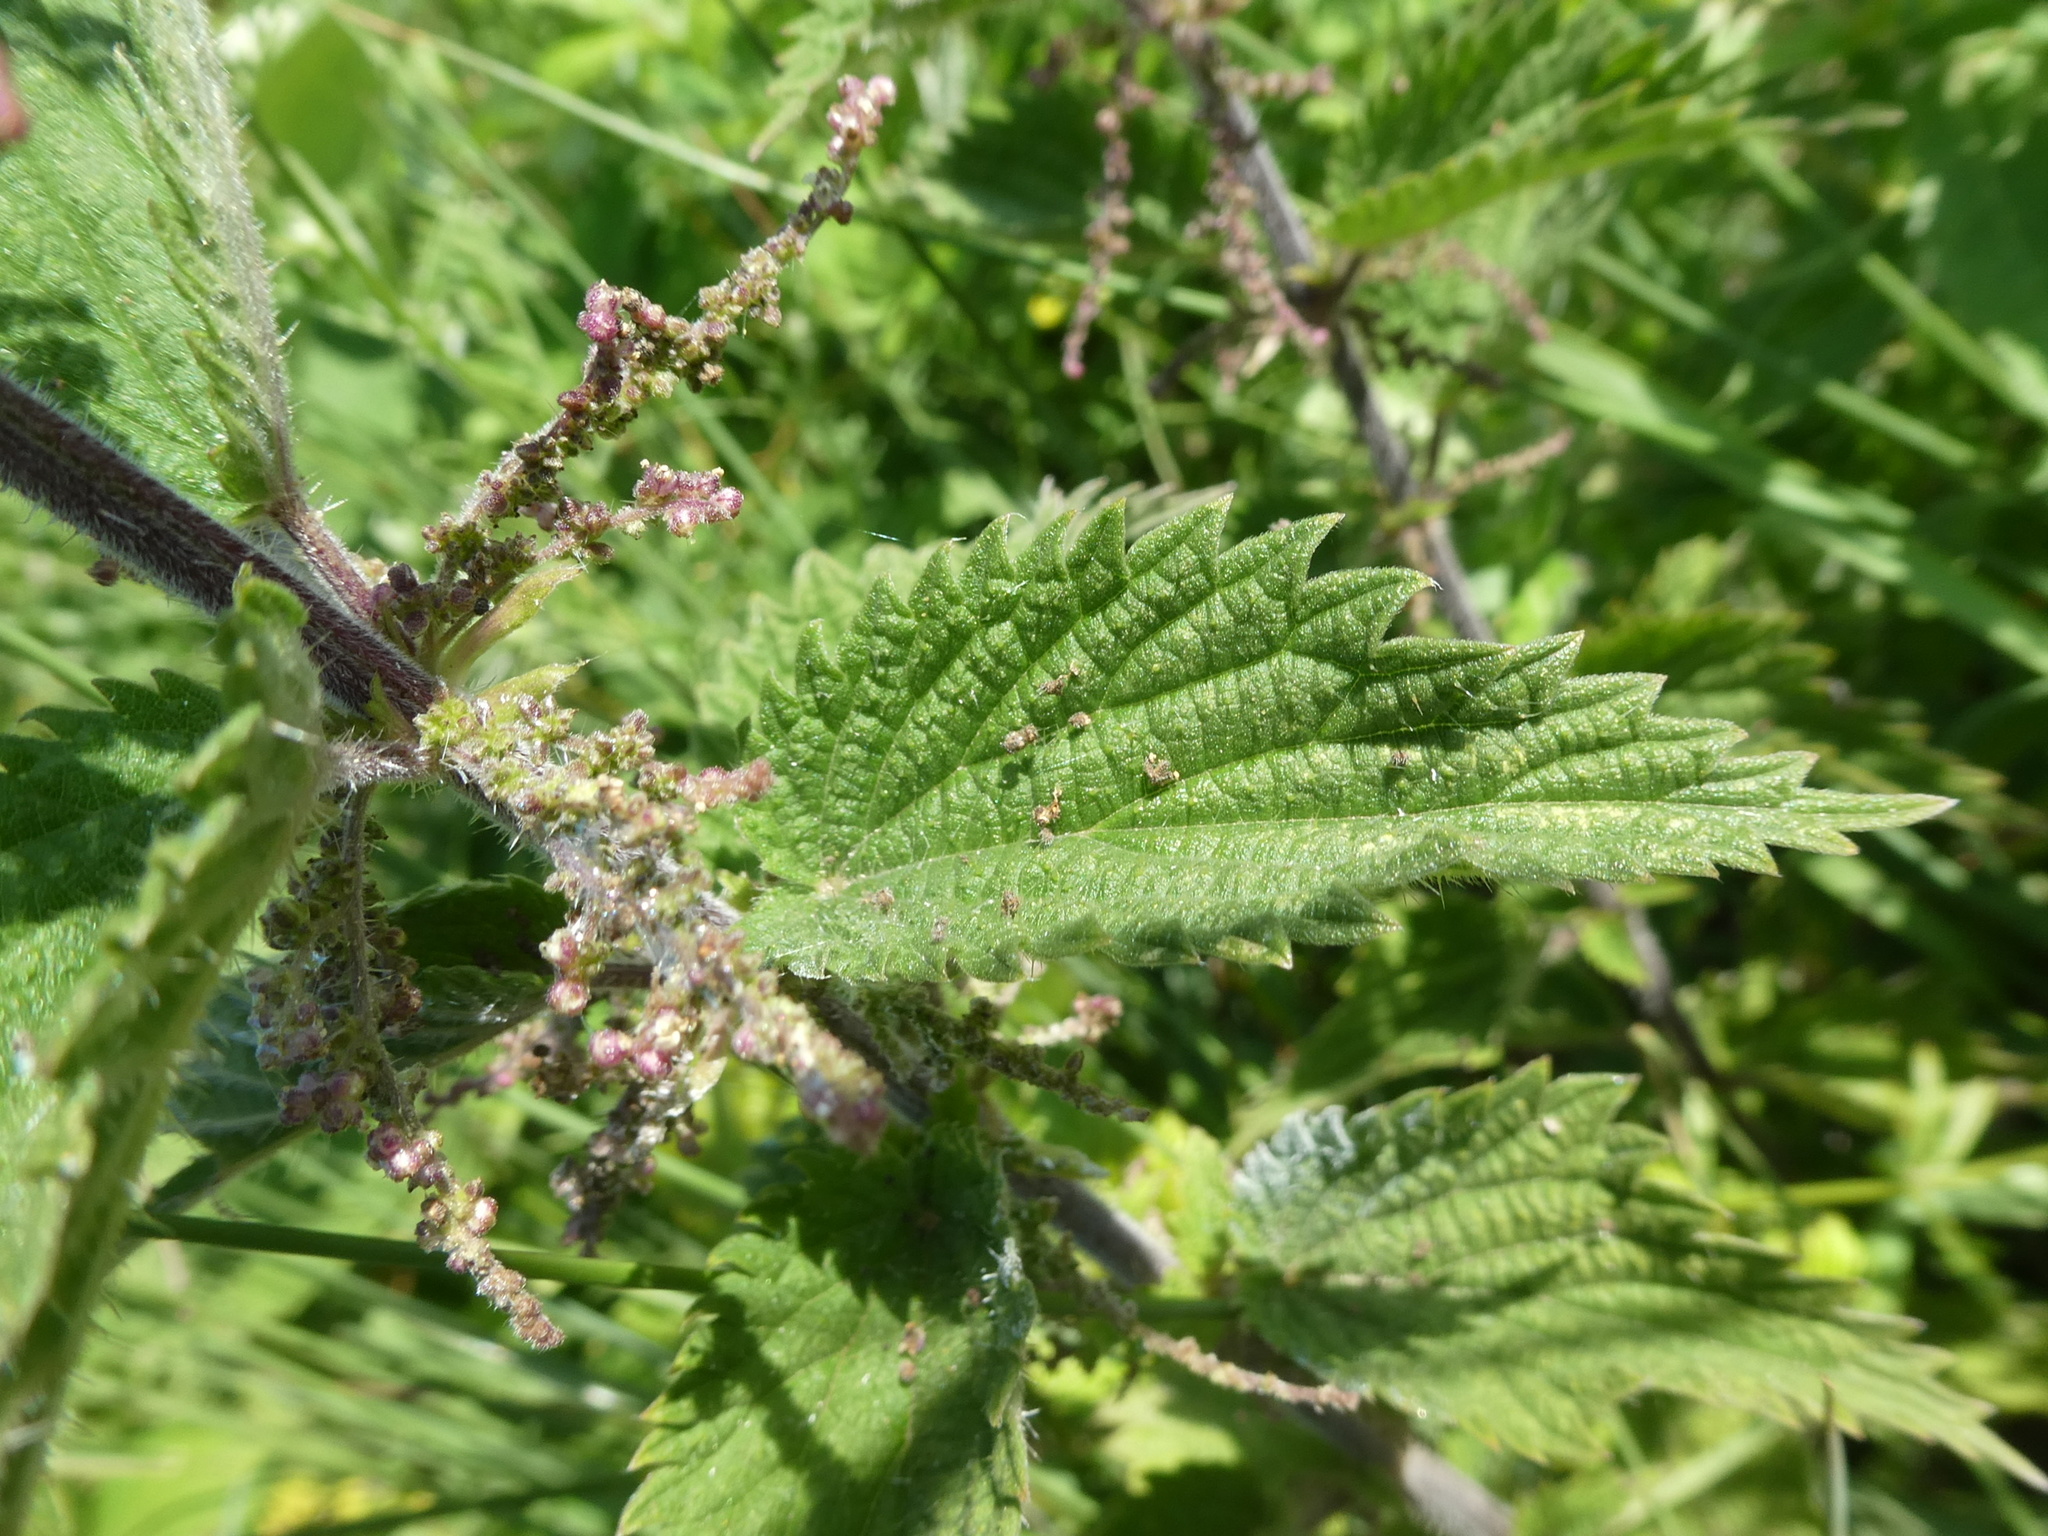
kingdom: Plantae
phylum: Tracheophyta
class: Magnoliopsida
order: Rosales
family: Urticaceae
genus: Urtica
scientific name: Urtica dioica
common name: Common nettle
